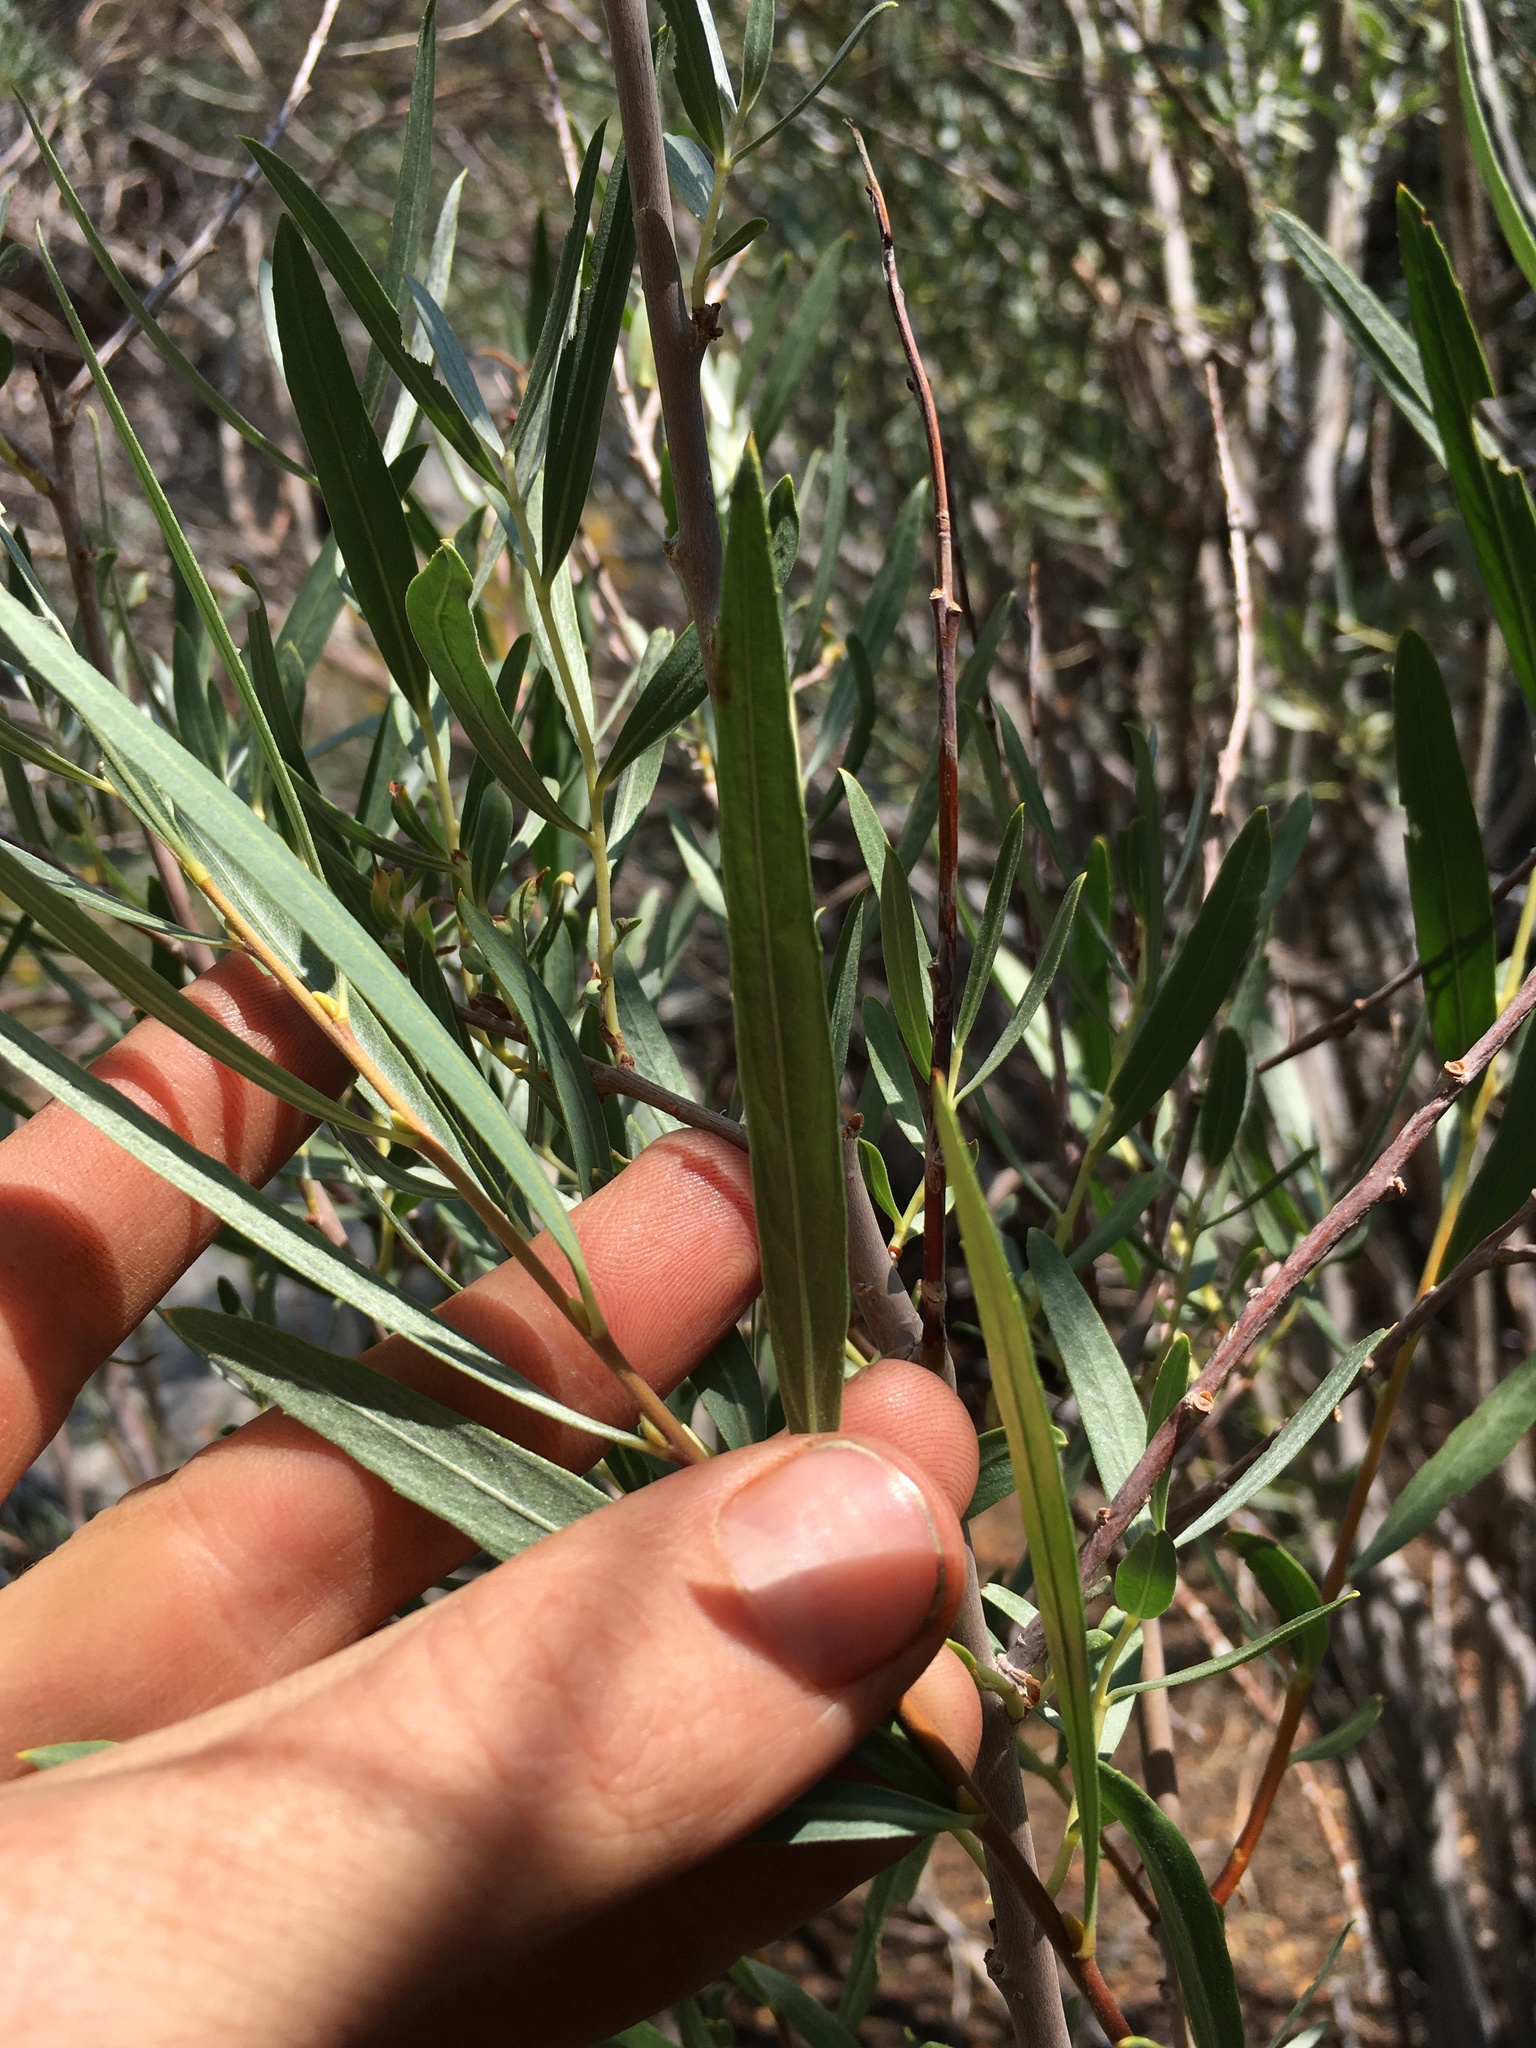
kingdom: Plantae
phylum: Tracheophyta
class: Magnoliopsida
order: Malpighiales
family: Salicaceae
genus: Salix
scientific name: Salix exigua
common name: Coyote willow
